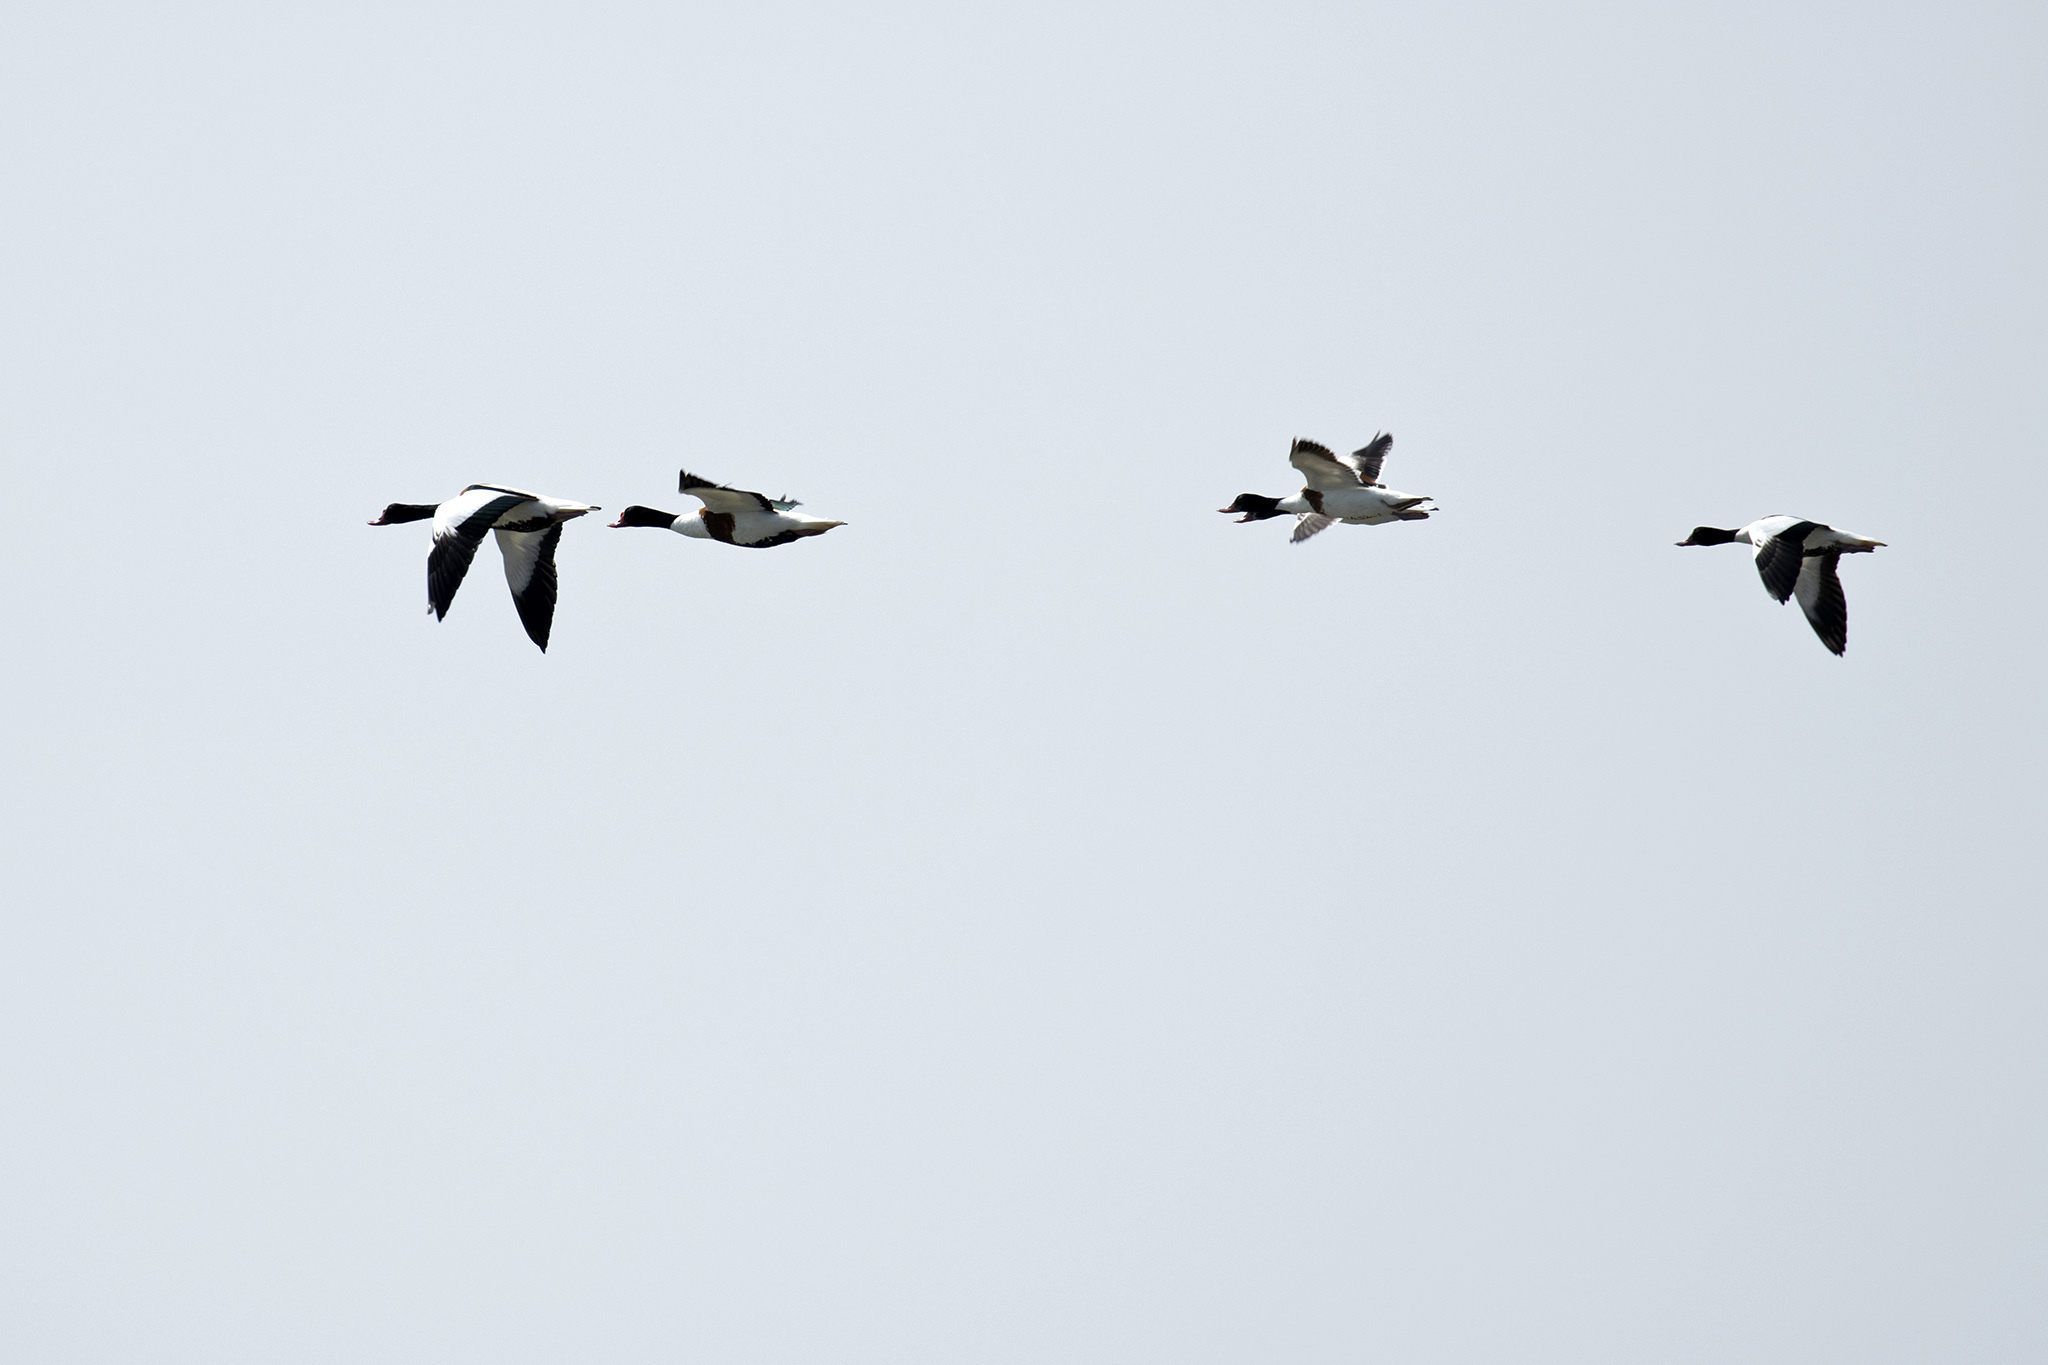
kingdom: Animalia
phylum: Chordata
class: Aves
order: Anseriformes
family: Anatidae
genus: Tadorna
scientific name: Tadorna tadorna
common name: Common shelduck
